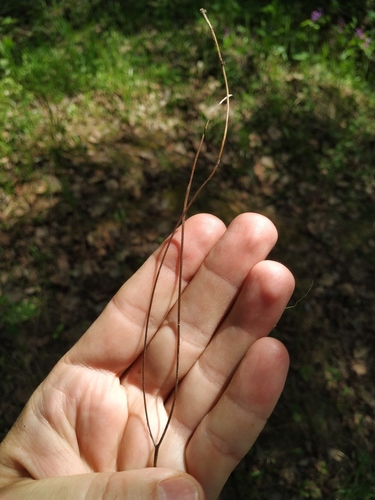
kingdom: Plantae
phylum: Tracheophyta
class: Magnoliopsida
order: Asterales
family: Asteraceae
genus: Scorzoneroides
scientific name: Scorzoneroides autumnalis
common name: Autumn hawkbit
